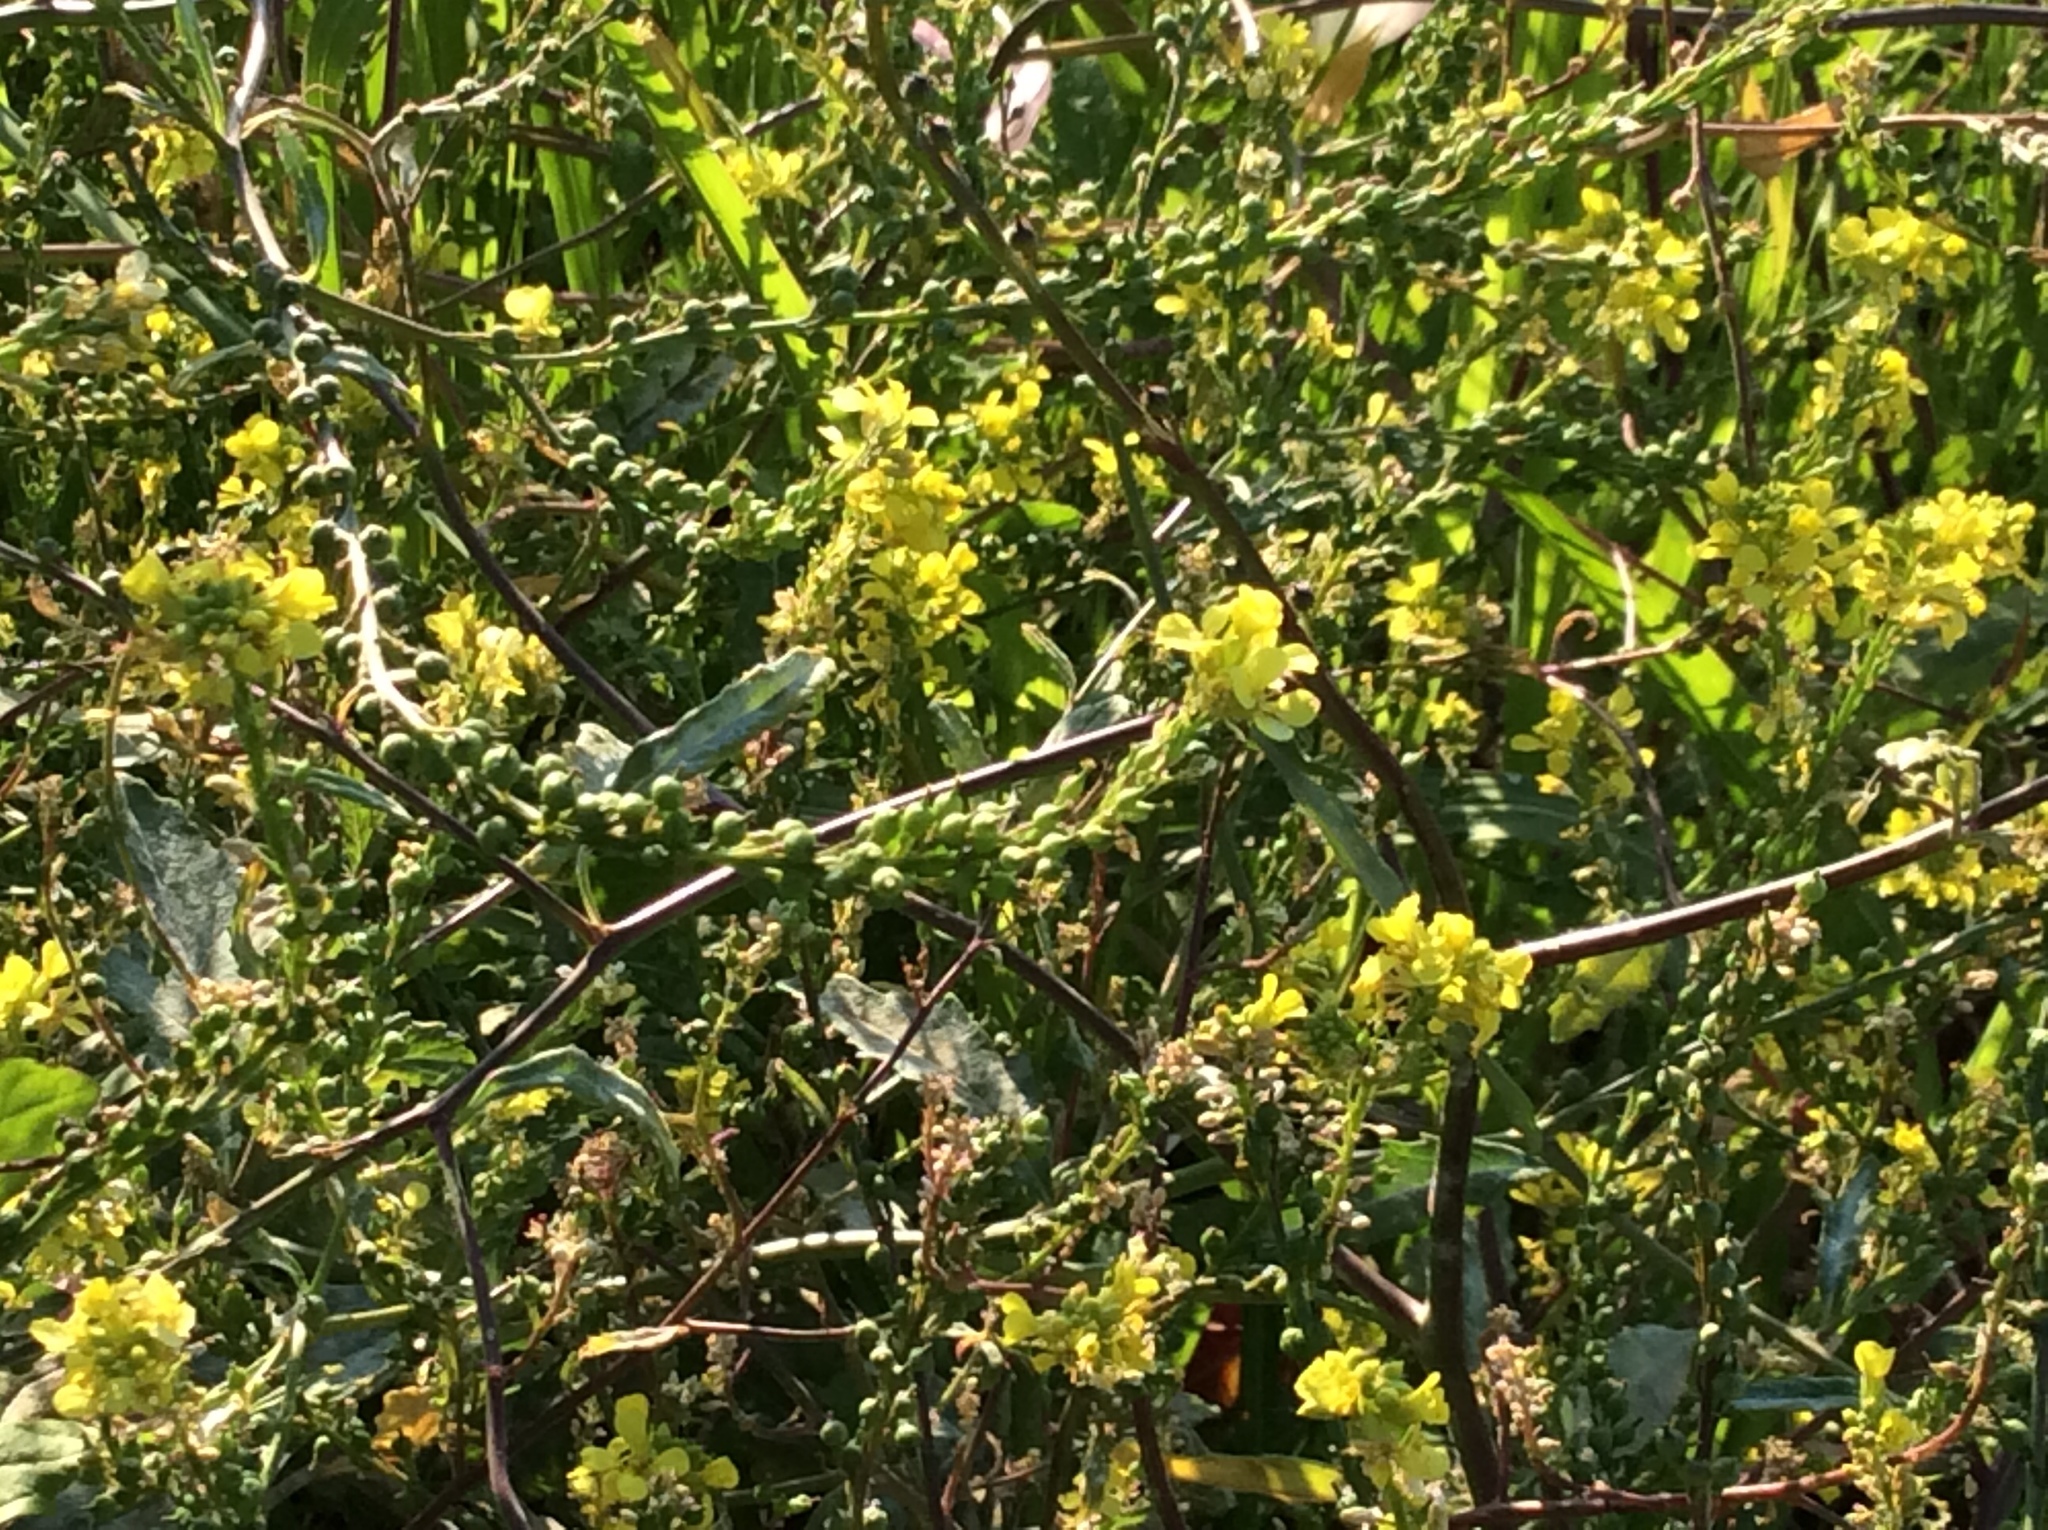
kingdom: Plantae
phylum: Tracheophyta
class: Magnoliopsida
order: Brassicales
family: Brassicaceae
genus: Rapistrum
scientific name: Rapistrum rugosum
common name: Annual bastardcabbage
